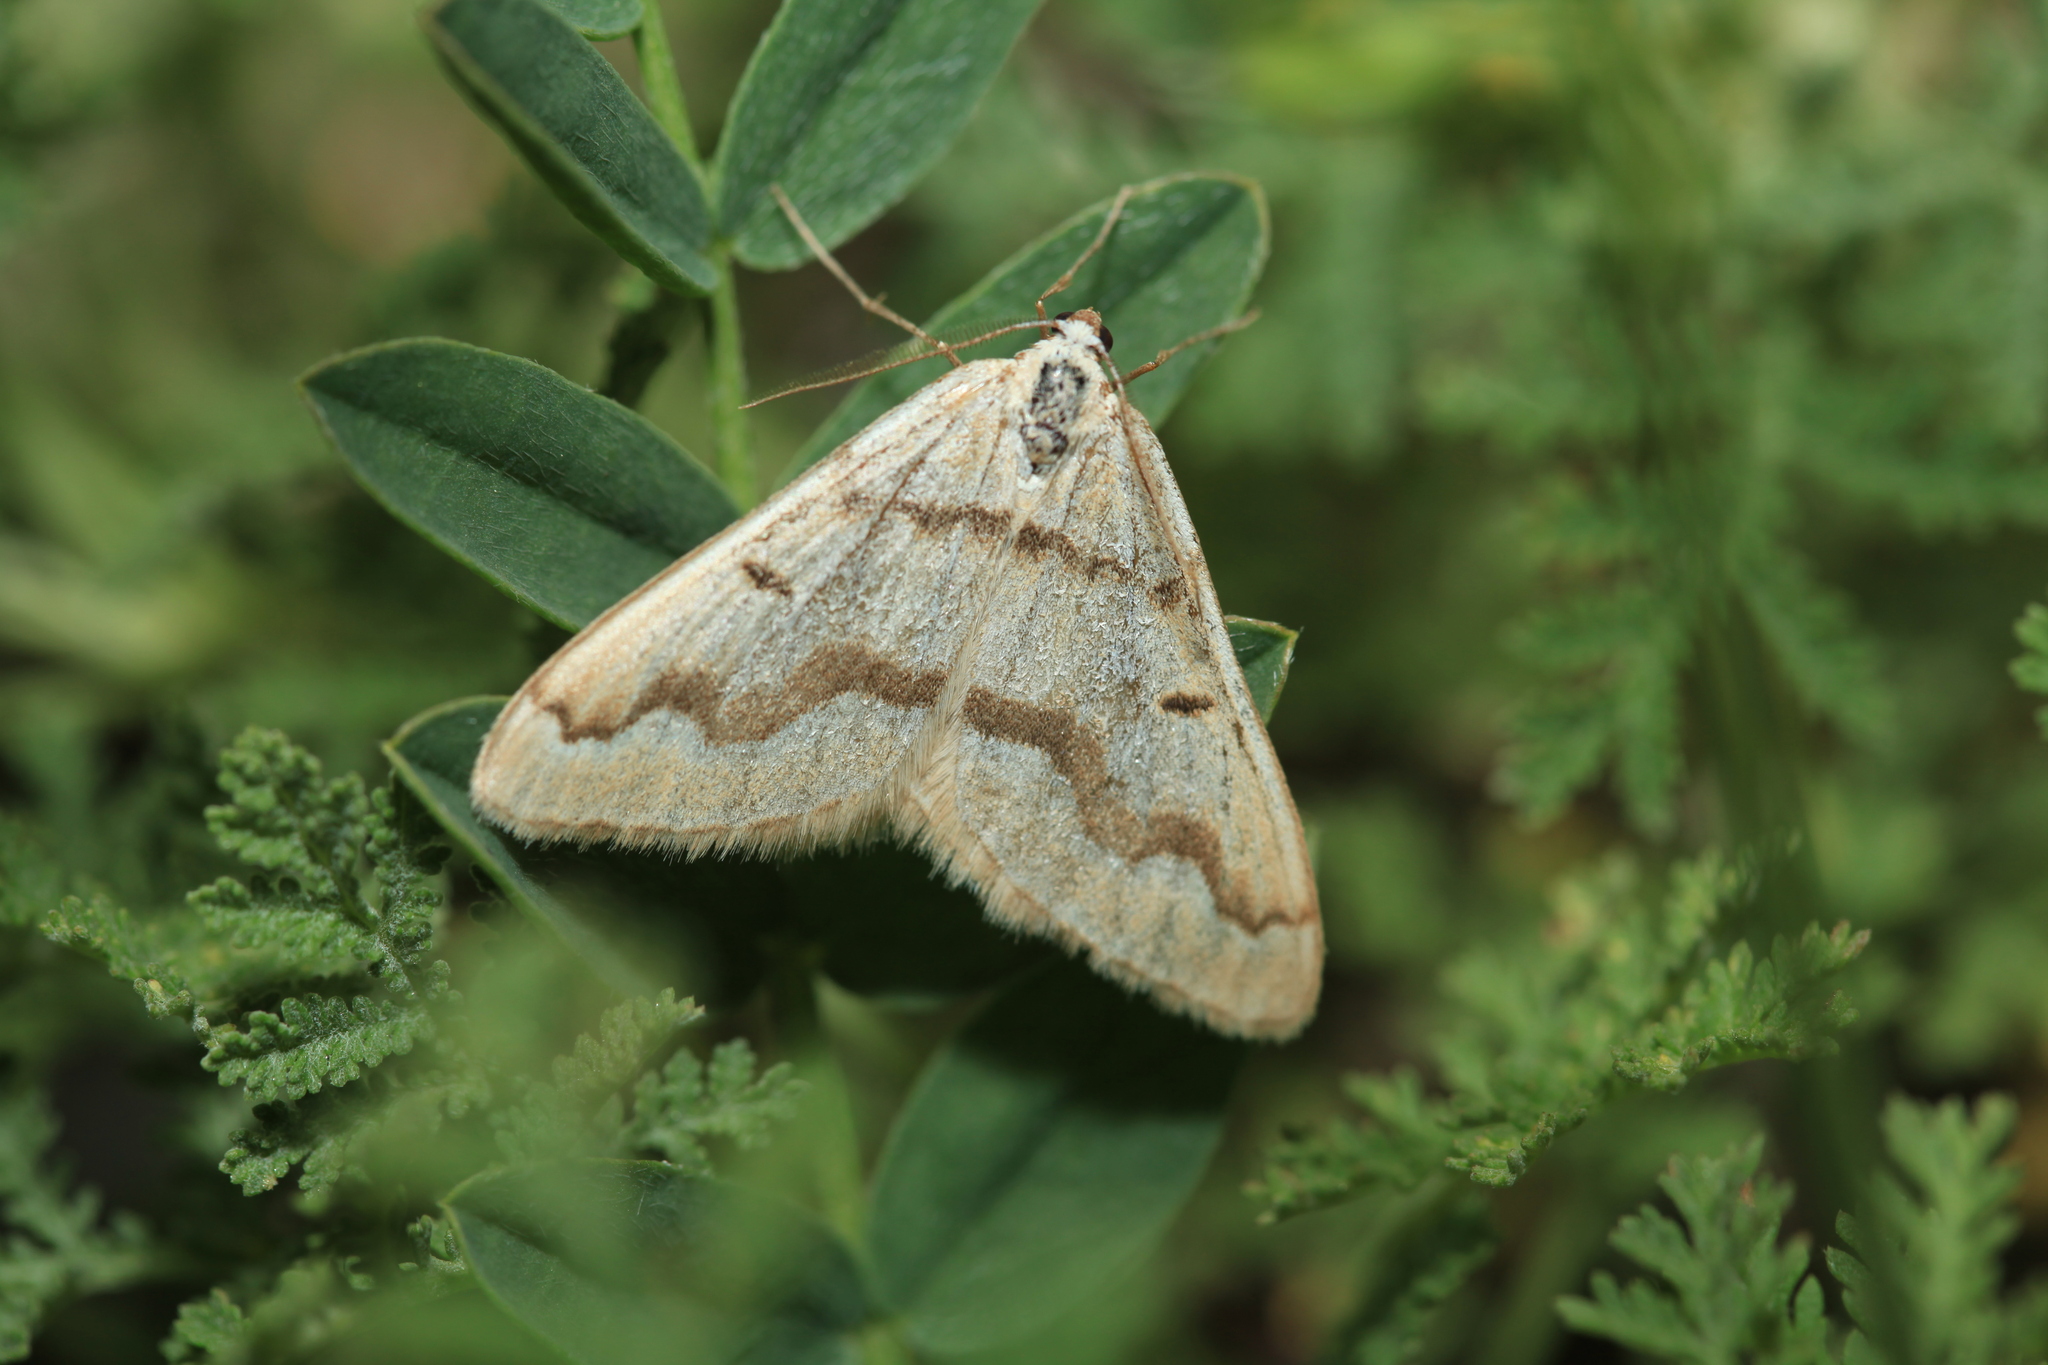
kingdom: Animalia
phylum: Arthropoda
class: Insecta
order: Lepidoptera
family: Geometridae
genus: Rhodostrophia
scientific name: Rhodostrophia jacularia
